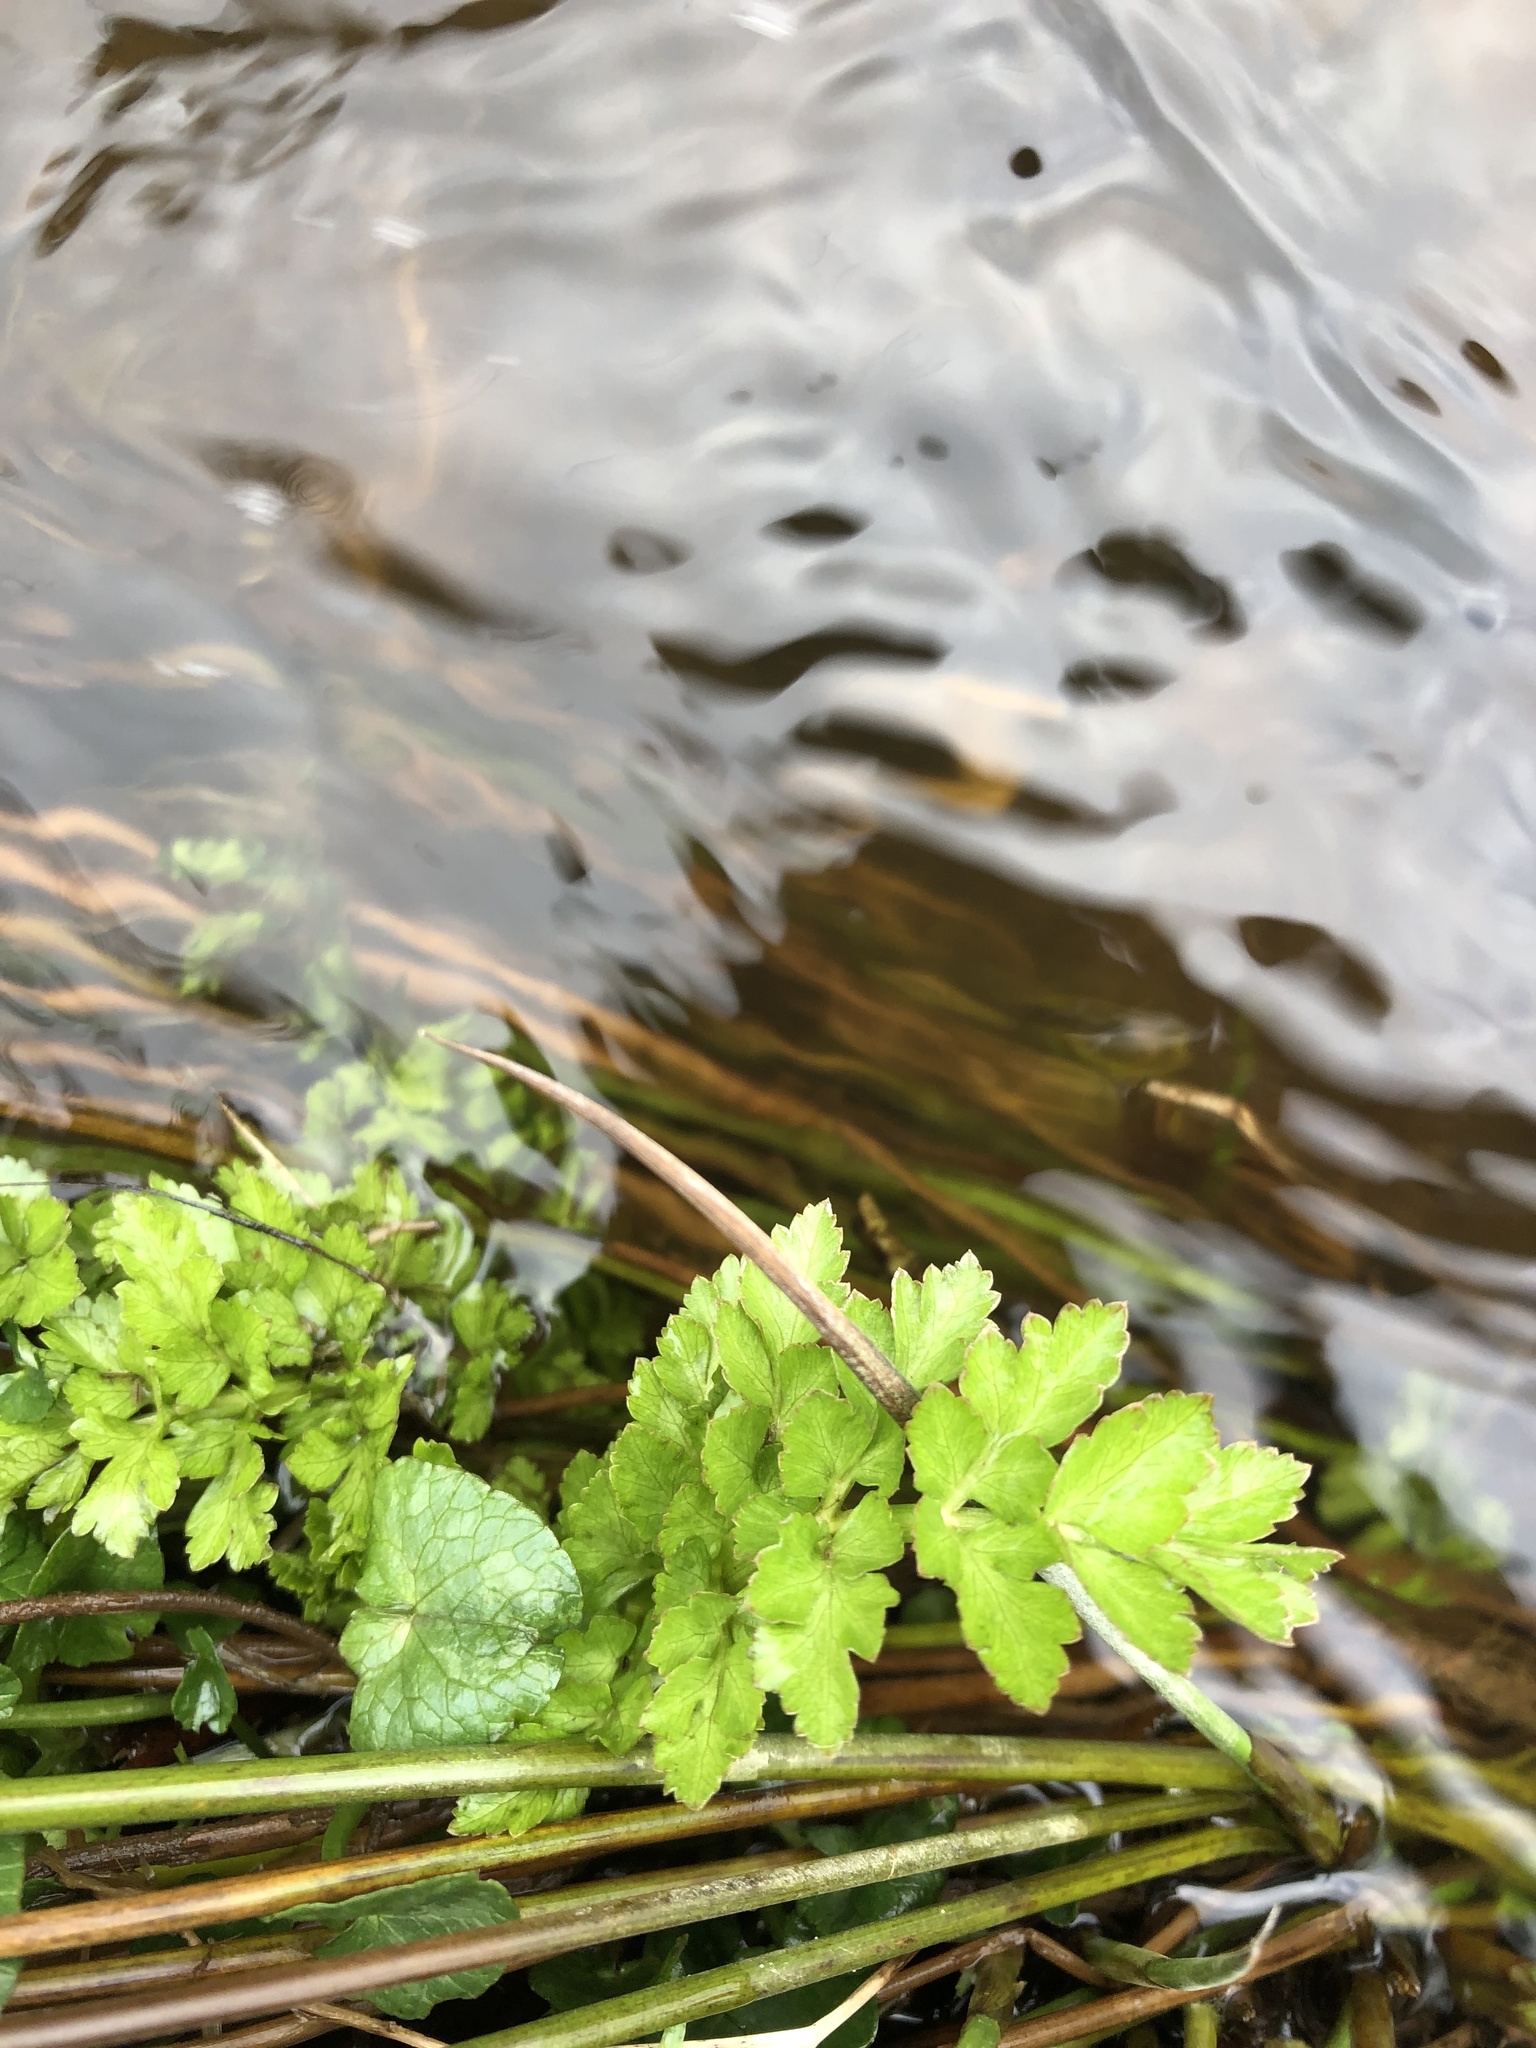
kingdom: Plantae
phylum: Tracheophyta
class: Magnoliopsida
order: Apiales
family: Apiaceae
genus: Oenanthe
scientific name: Oenanthe crocata
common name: Hemlock water-dropwort
